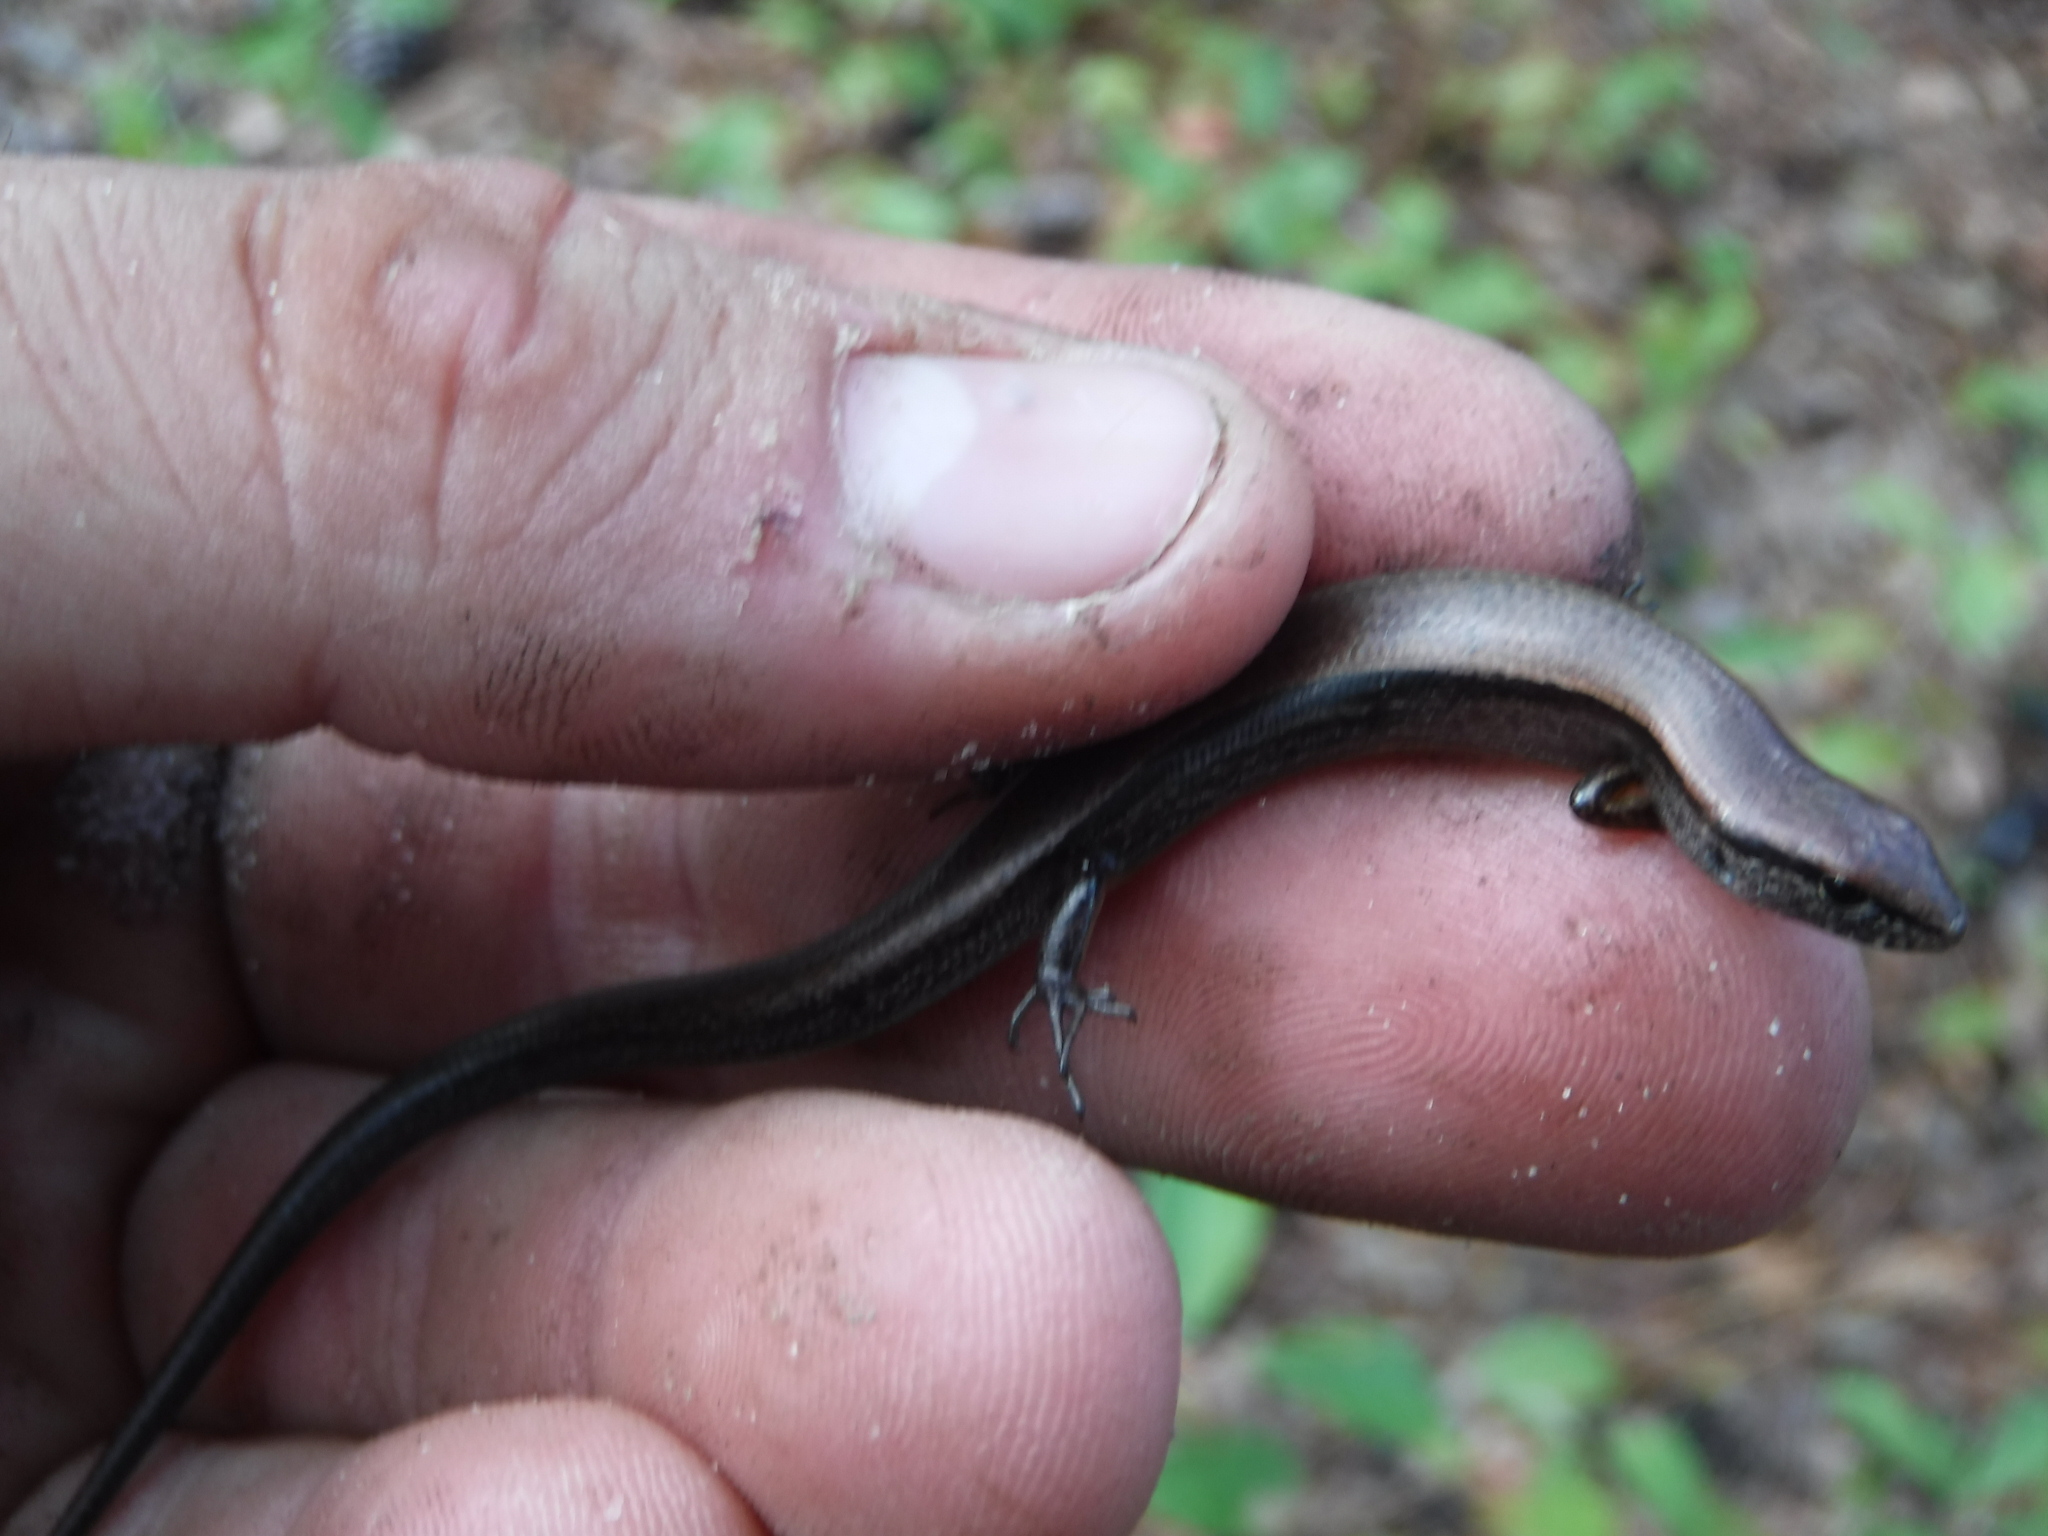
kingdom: Animalia
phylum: Chordata
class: Squamata
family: Scincidae
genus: Scincella
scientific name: Scincella lateralis
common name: Ground skink
